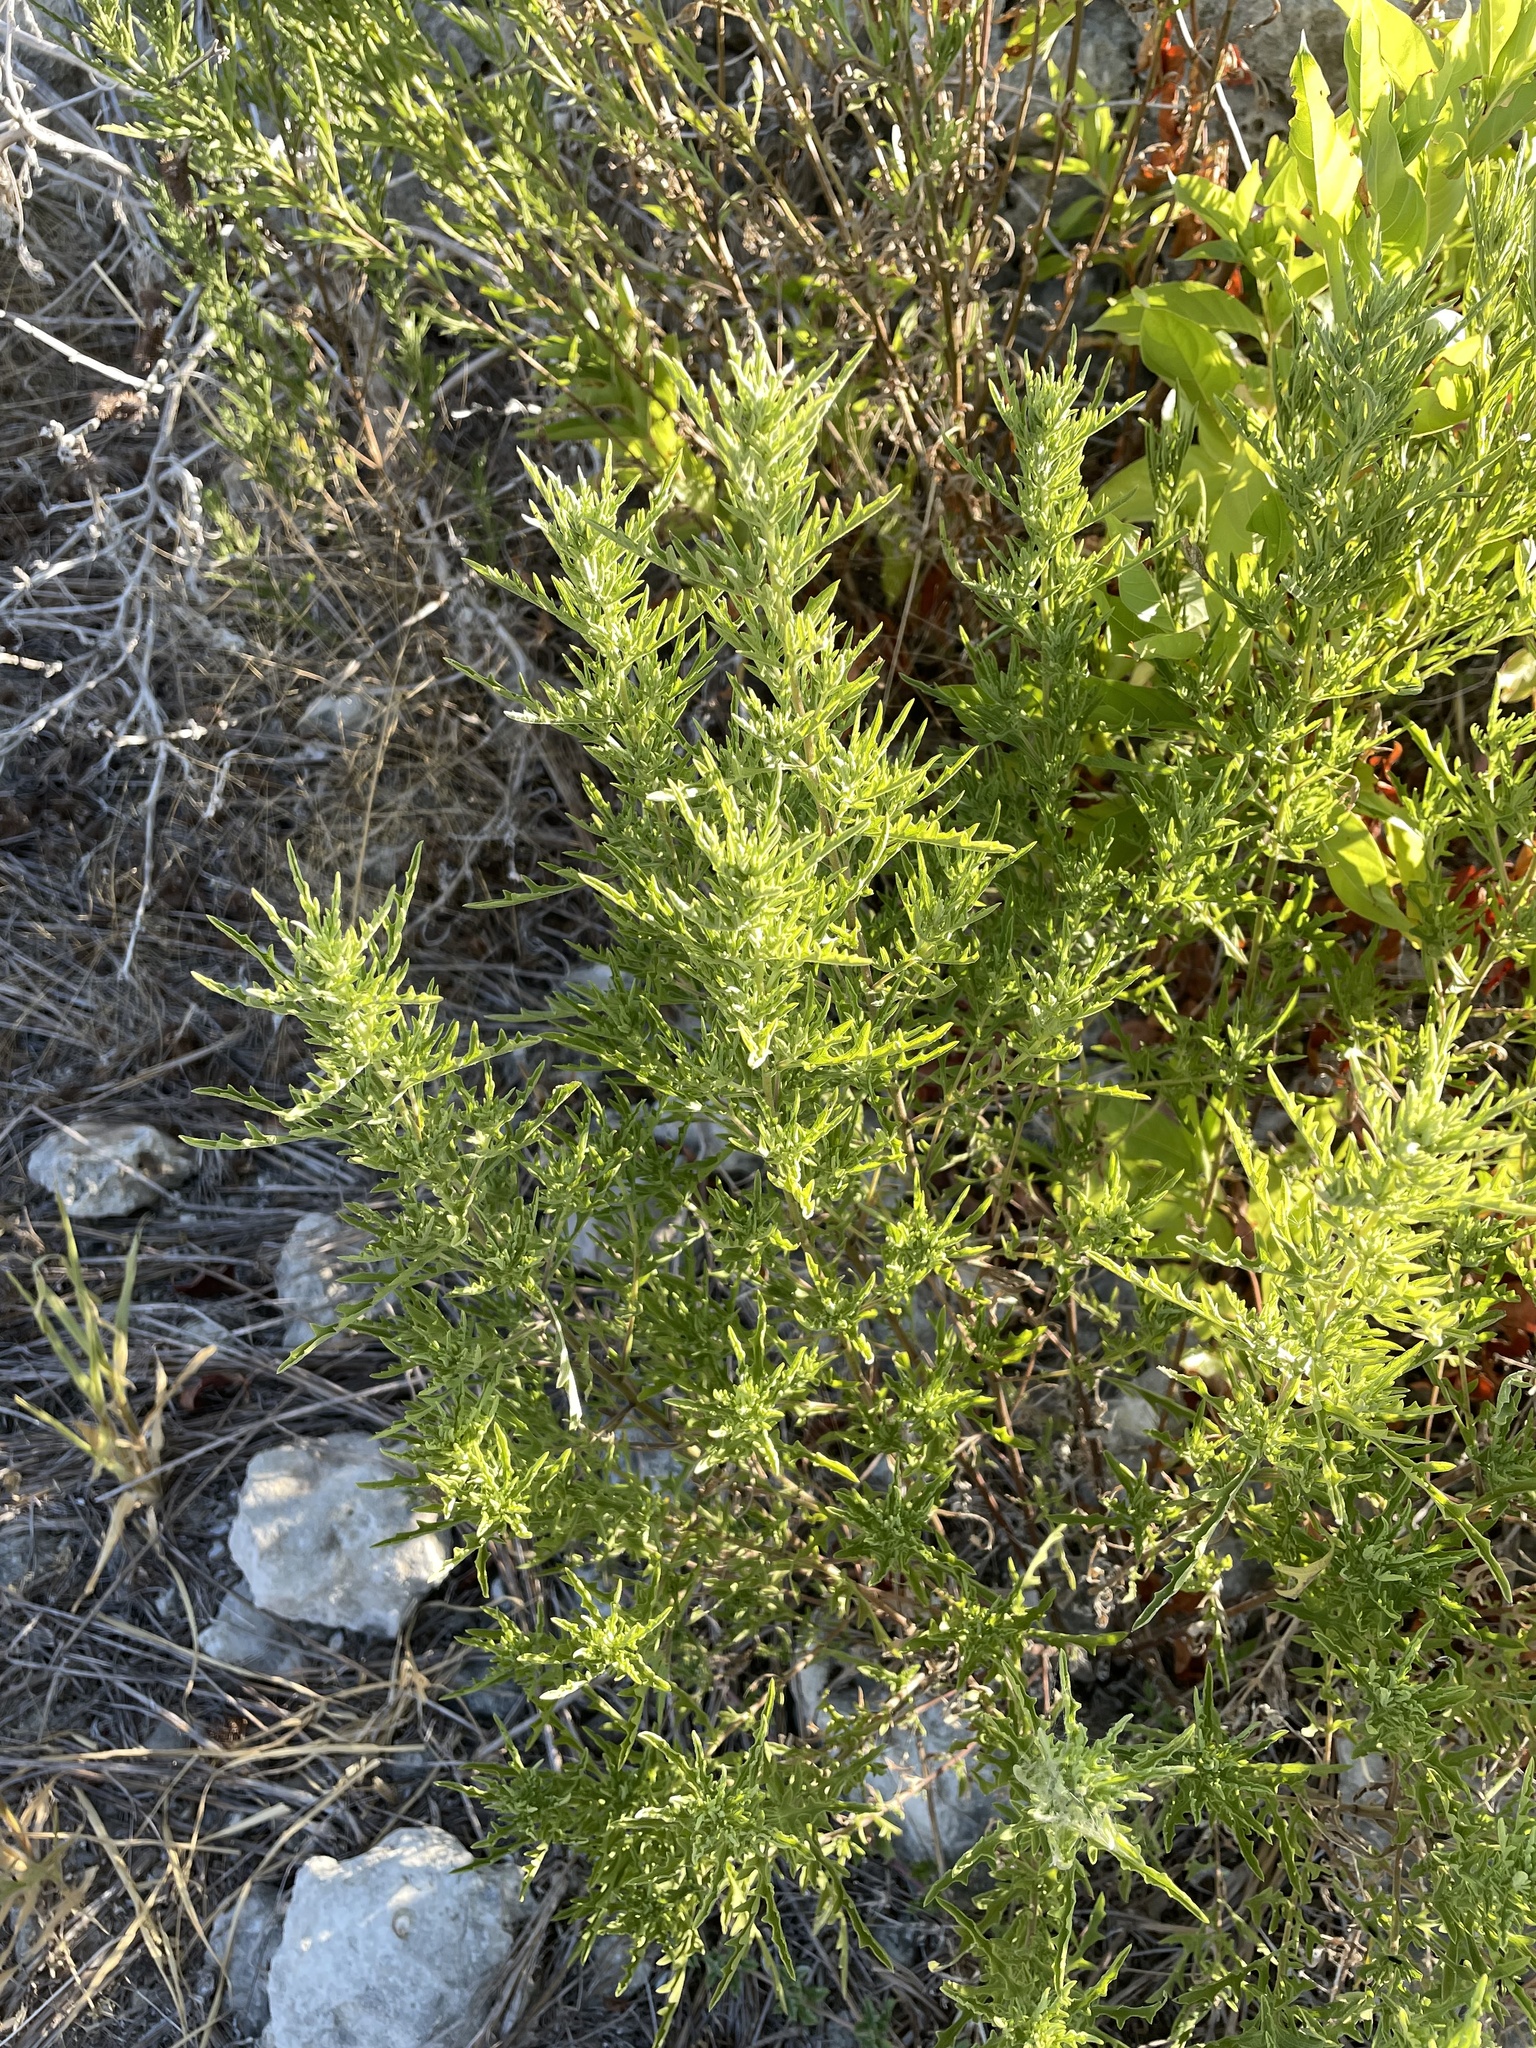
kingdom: Plantae
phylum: Tracheophyta
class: Magnoliopsida
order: Asterales
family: Asteraceae
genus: Ambrosia
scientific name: Ambrosia psilostachya
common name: Perennial ragweed
